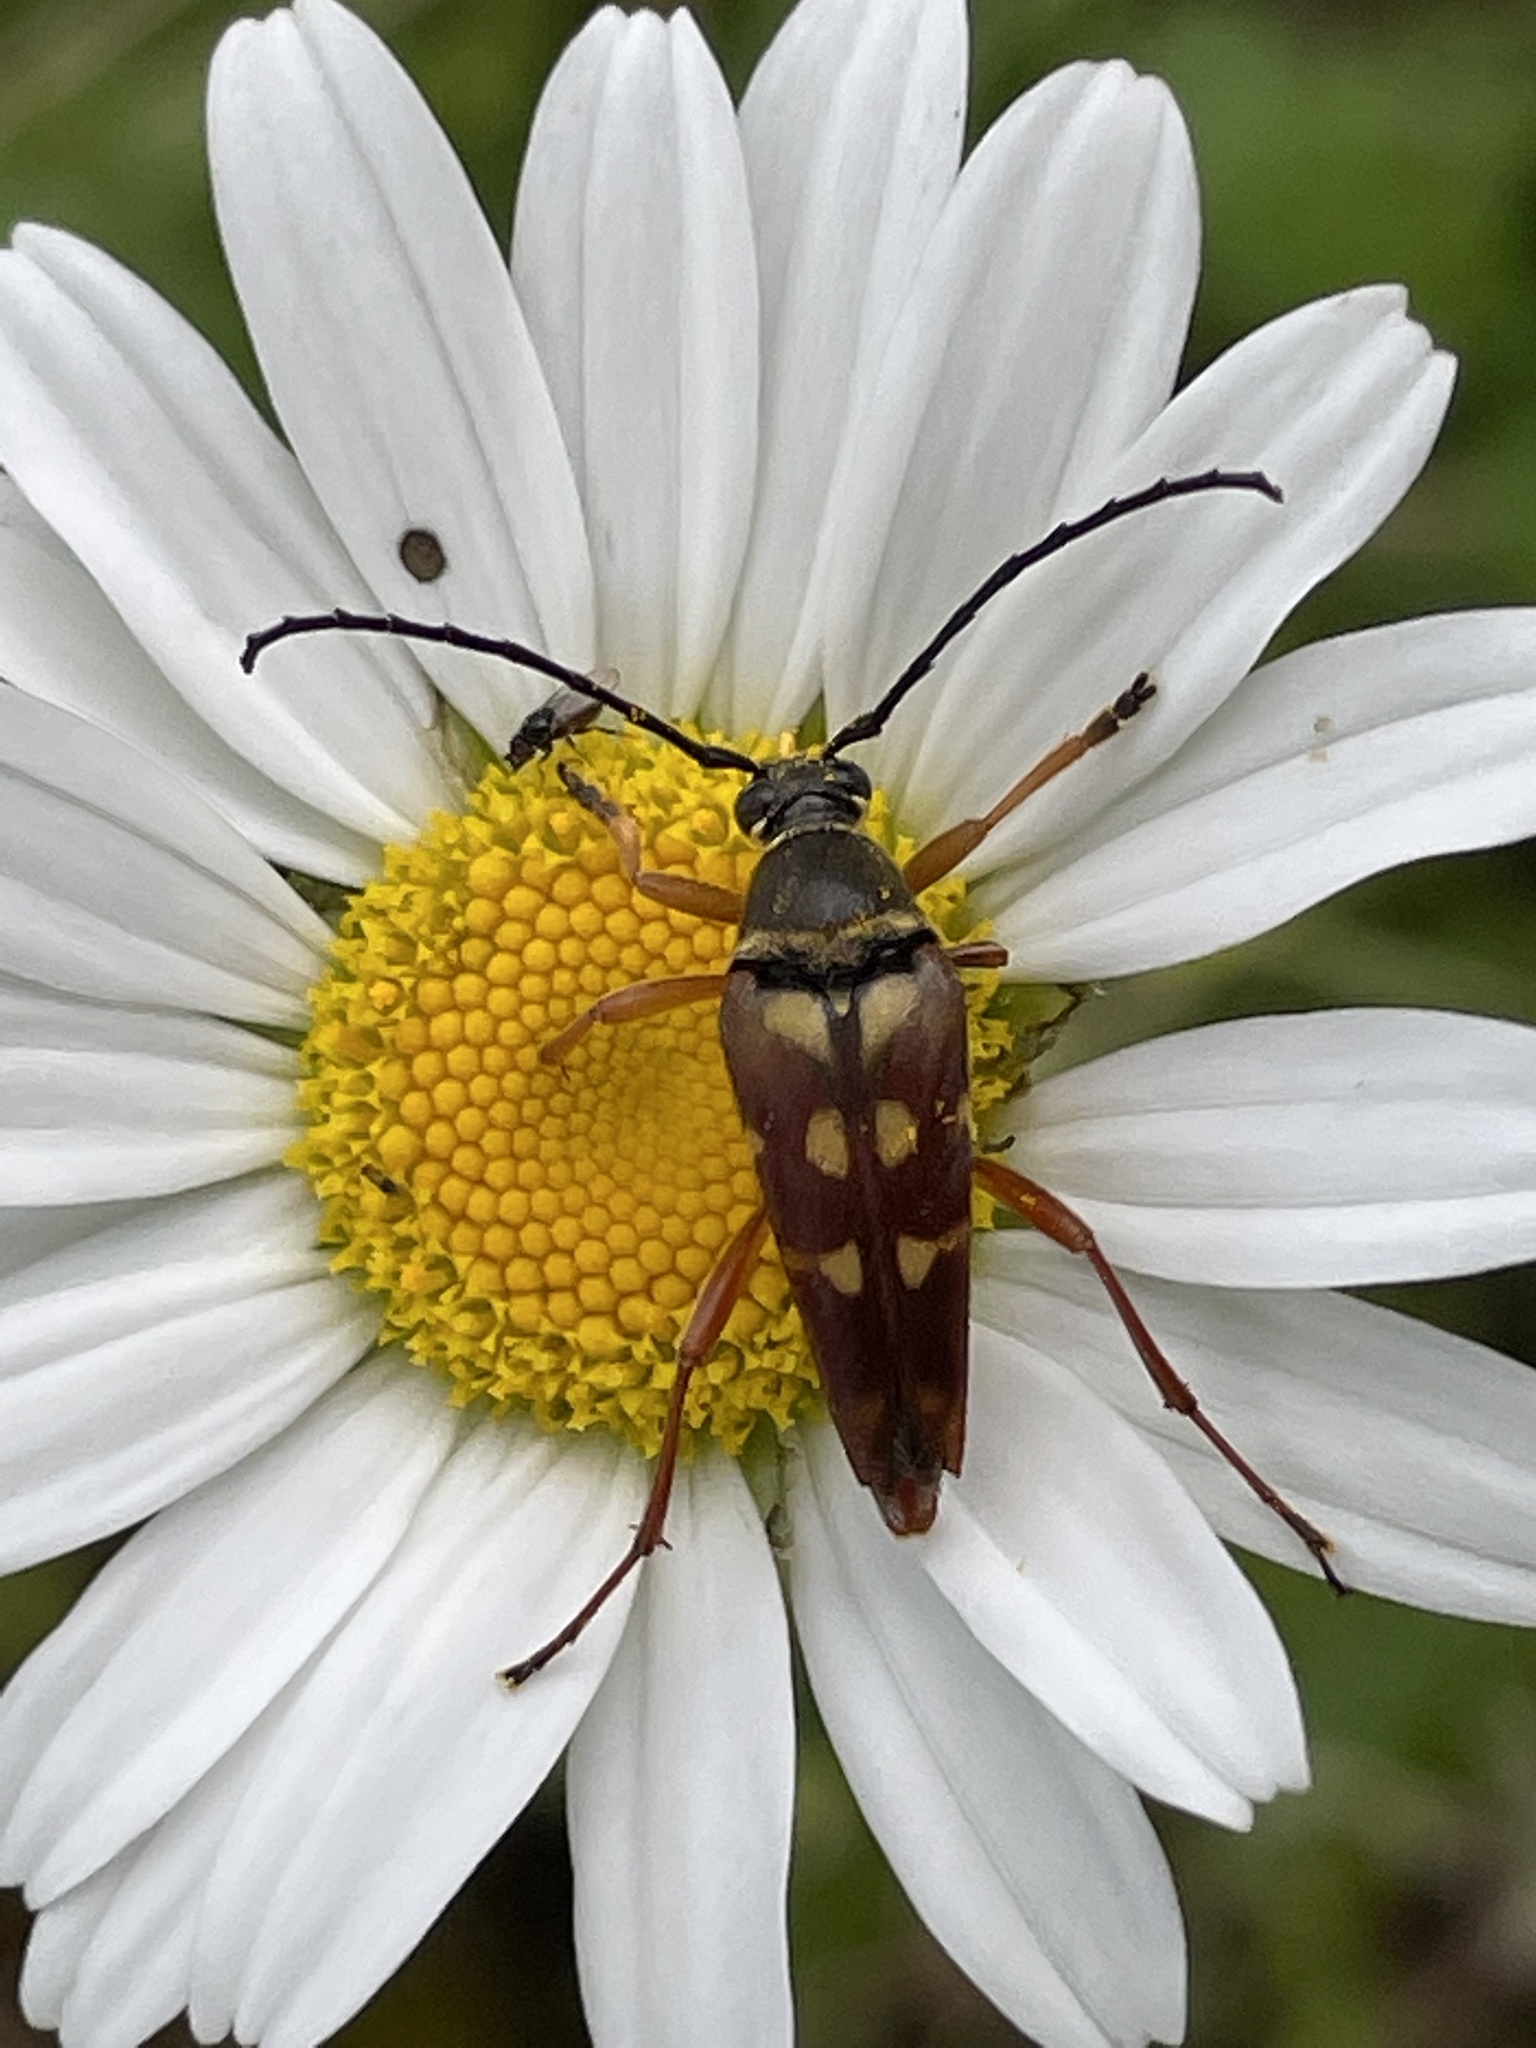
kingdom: Animalia
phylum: Arthropoda
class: Insecta
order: Coleoptera
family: Cerambycidae
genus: Typocerus
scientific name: Typocerus velutinus
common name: Banded longhorn beetle
